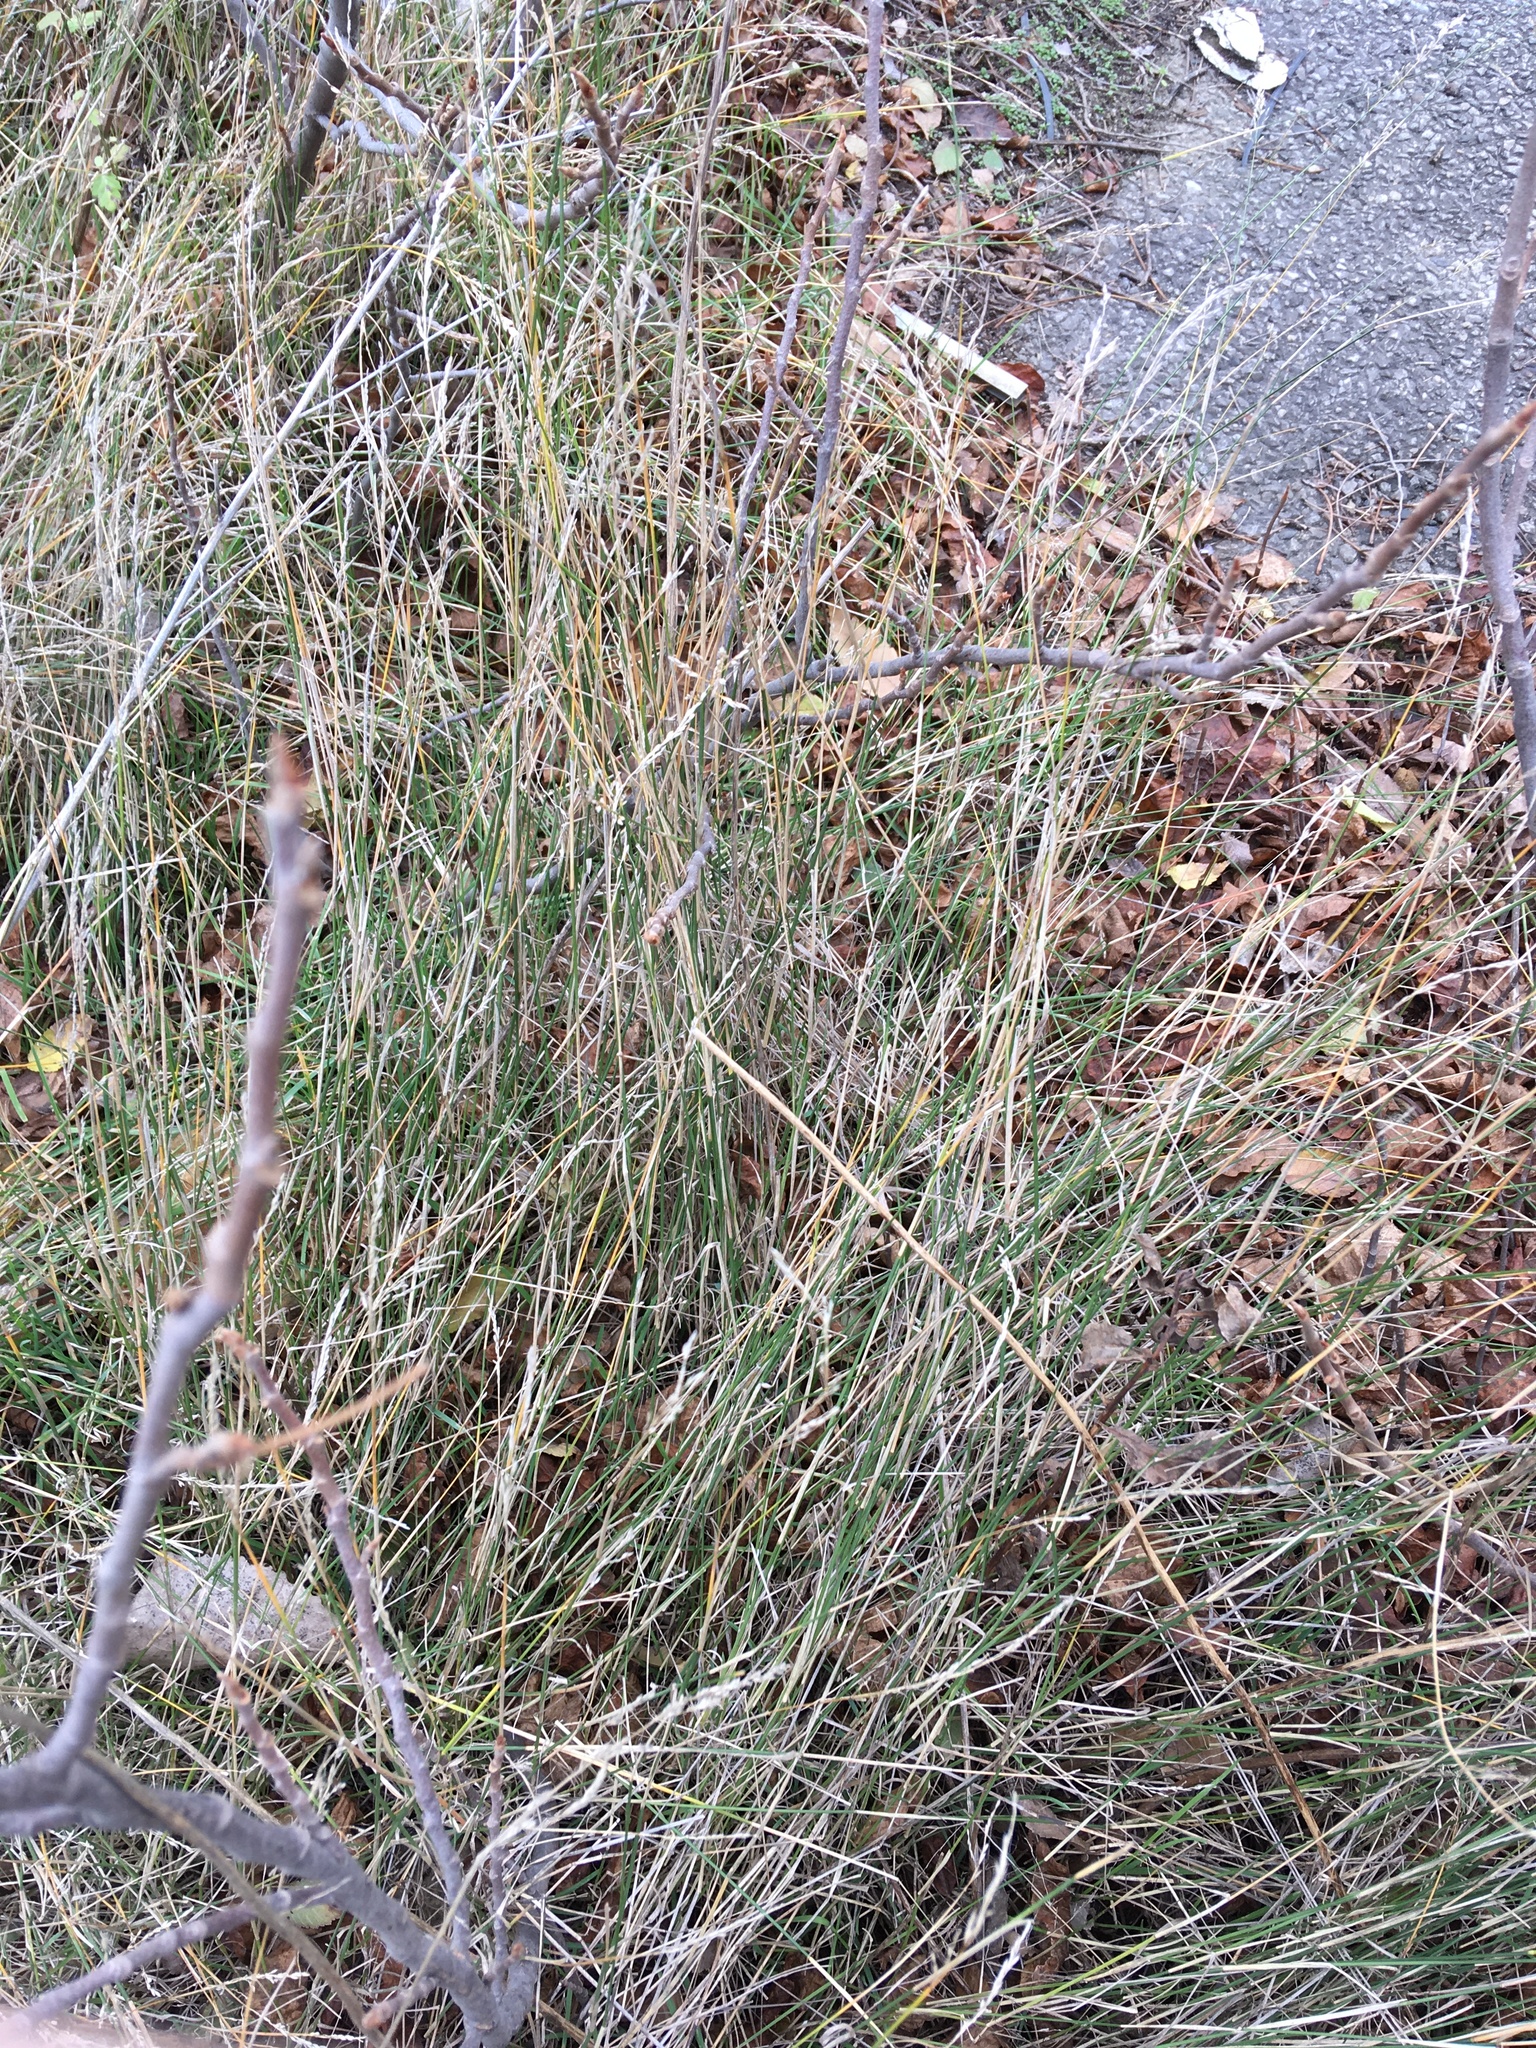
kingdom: Plantae
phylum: Tracheophyta
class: Liliopsida
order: Poales
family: Poaceae
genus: Poa
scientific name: Poa nemoralis
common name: Wood bluegrass
